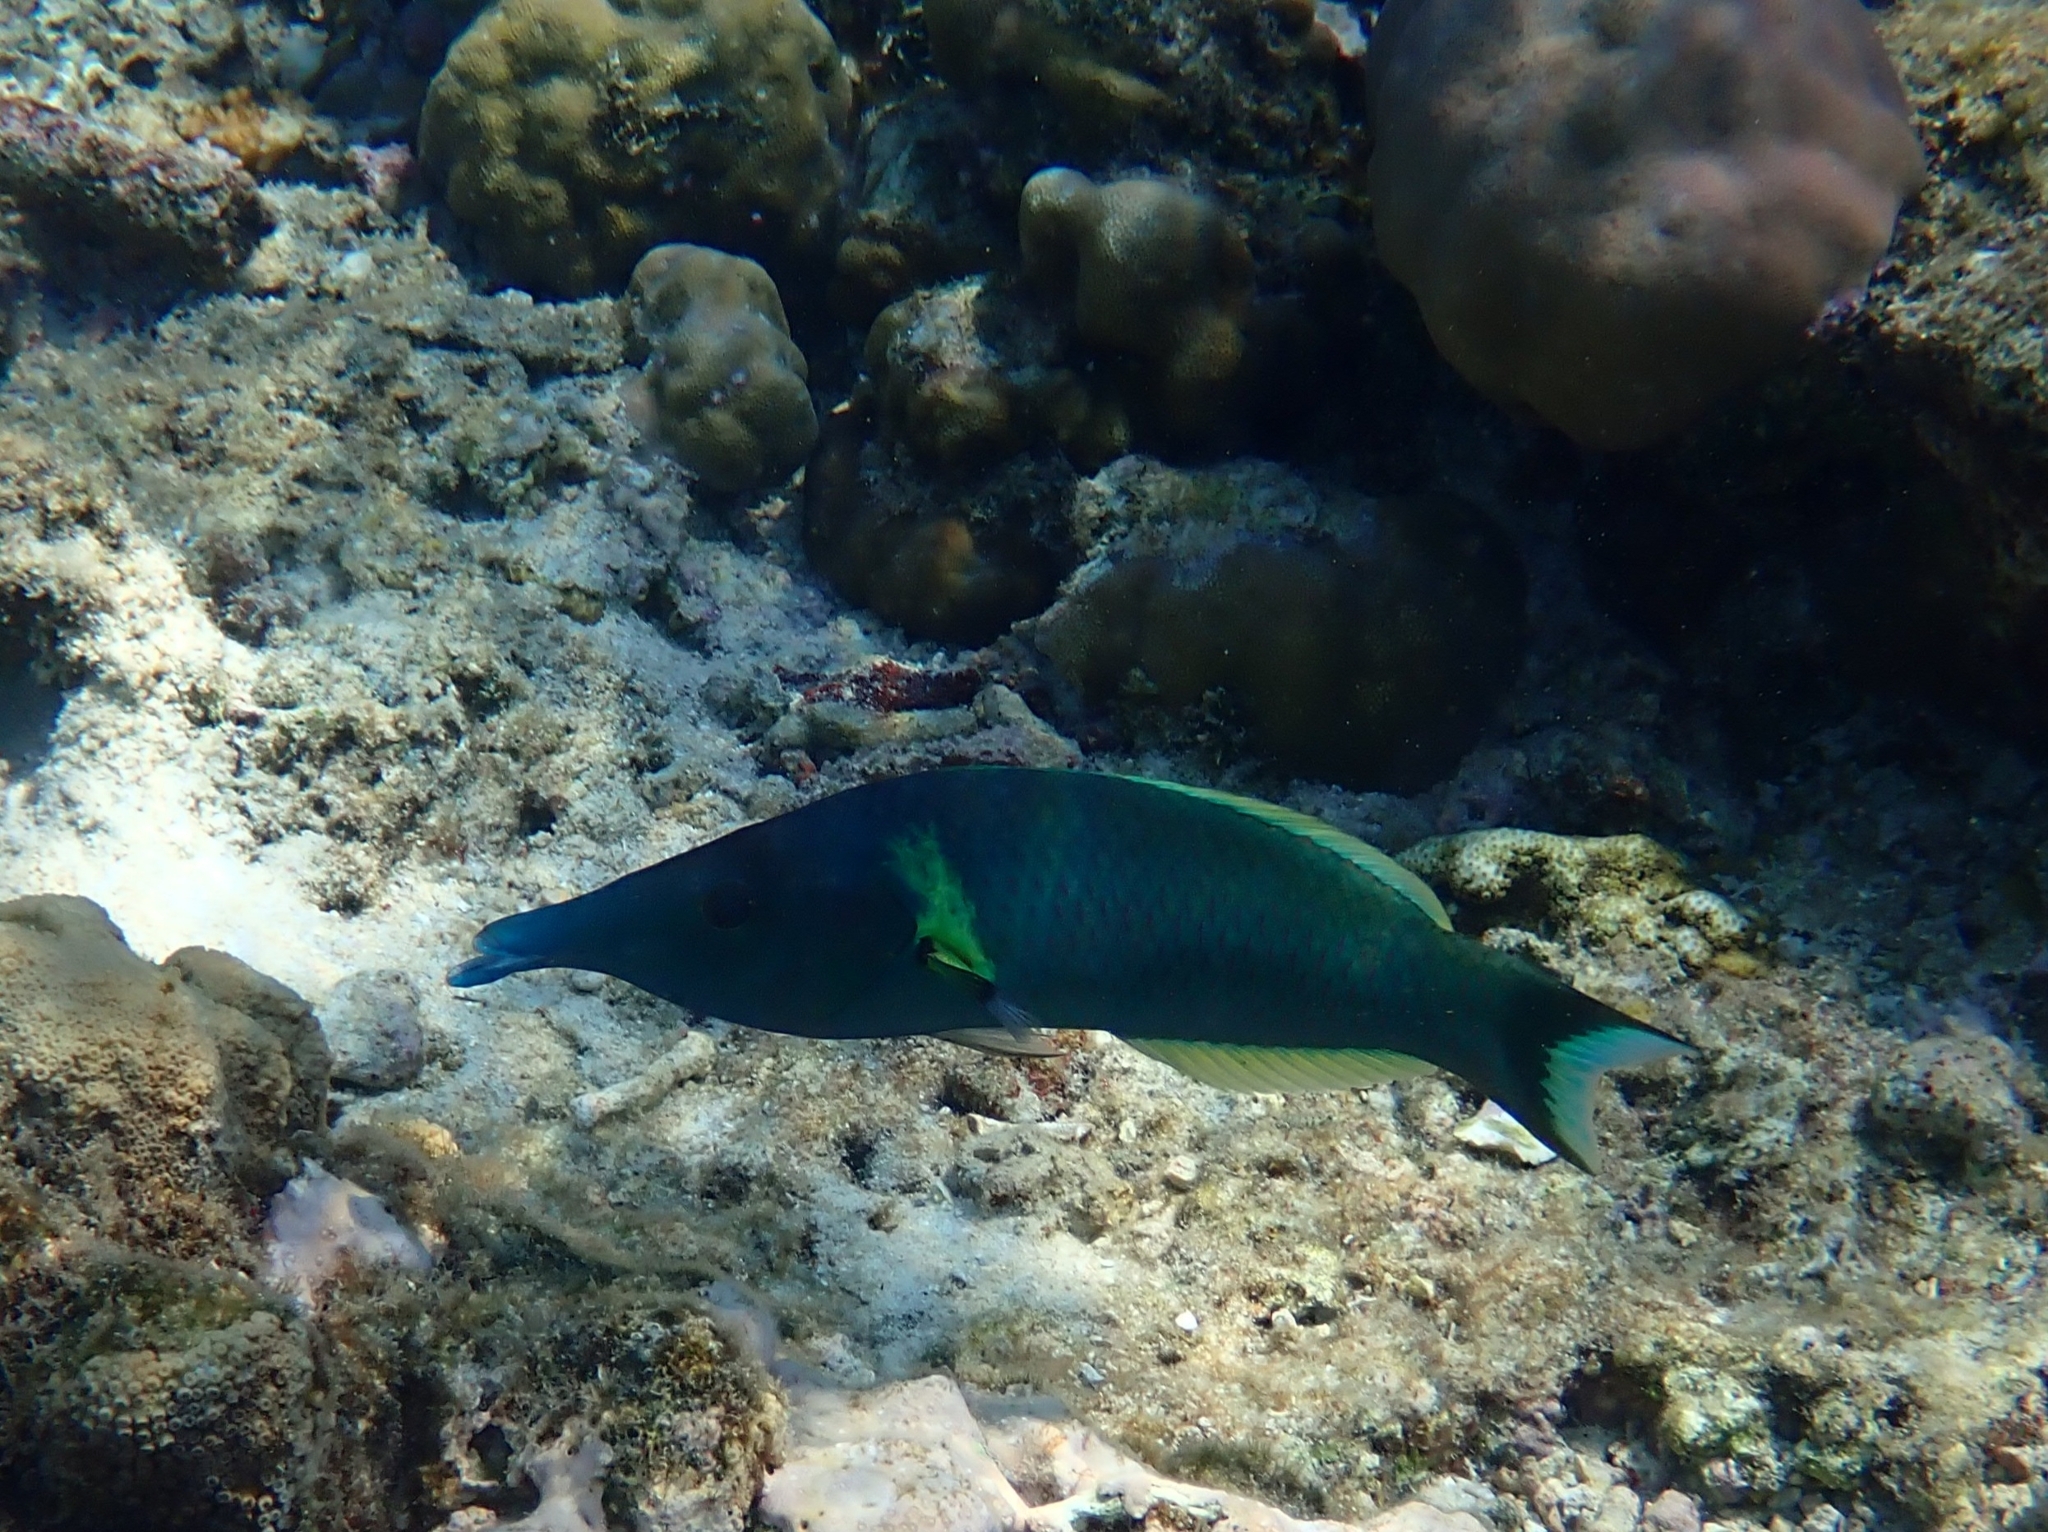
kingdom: Animalia
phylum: Chordata
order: Perciformes
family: Labridae
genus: Gomphosus
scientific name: Gomphosus varius
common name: Bird wrasse
